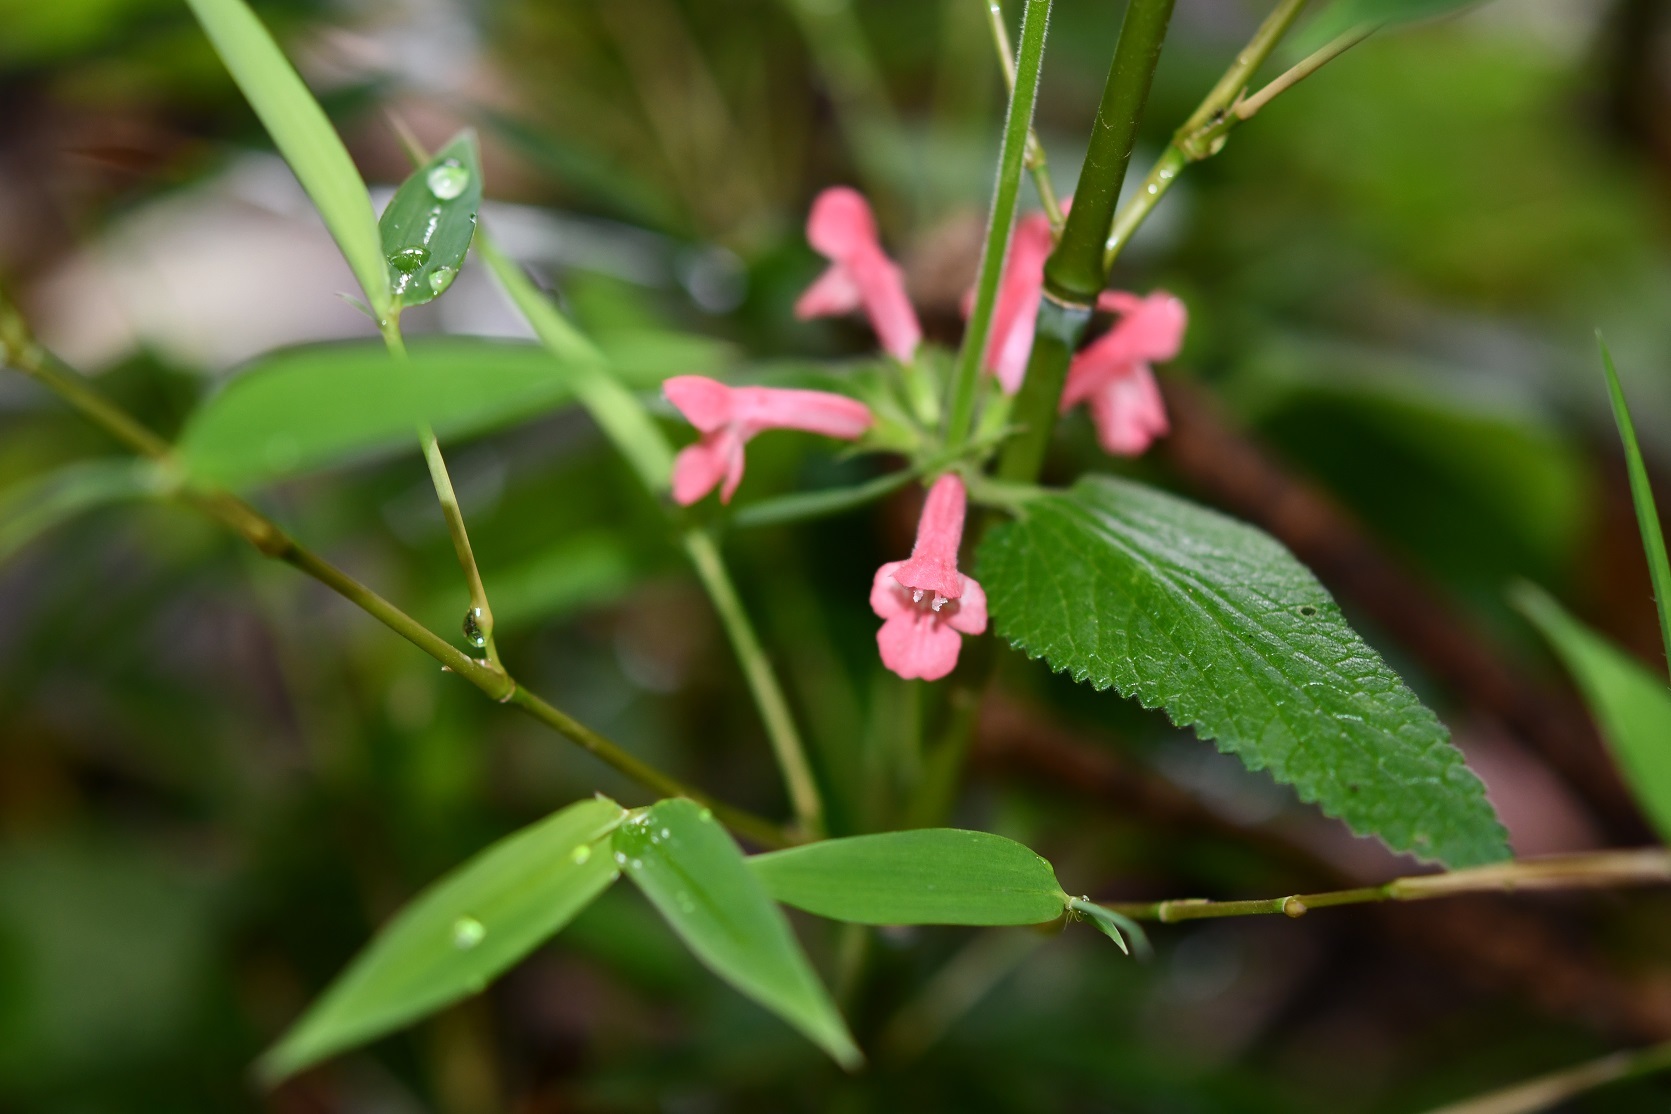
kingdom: Plantae
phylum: Tracheophyta
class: Magnoliopsida
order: Lamiales
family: Lamiaceae
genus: Stachys
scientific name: Stachys coccinea
